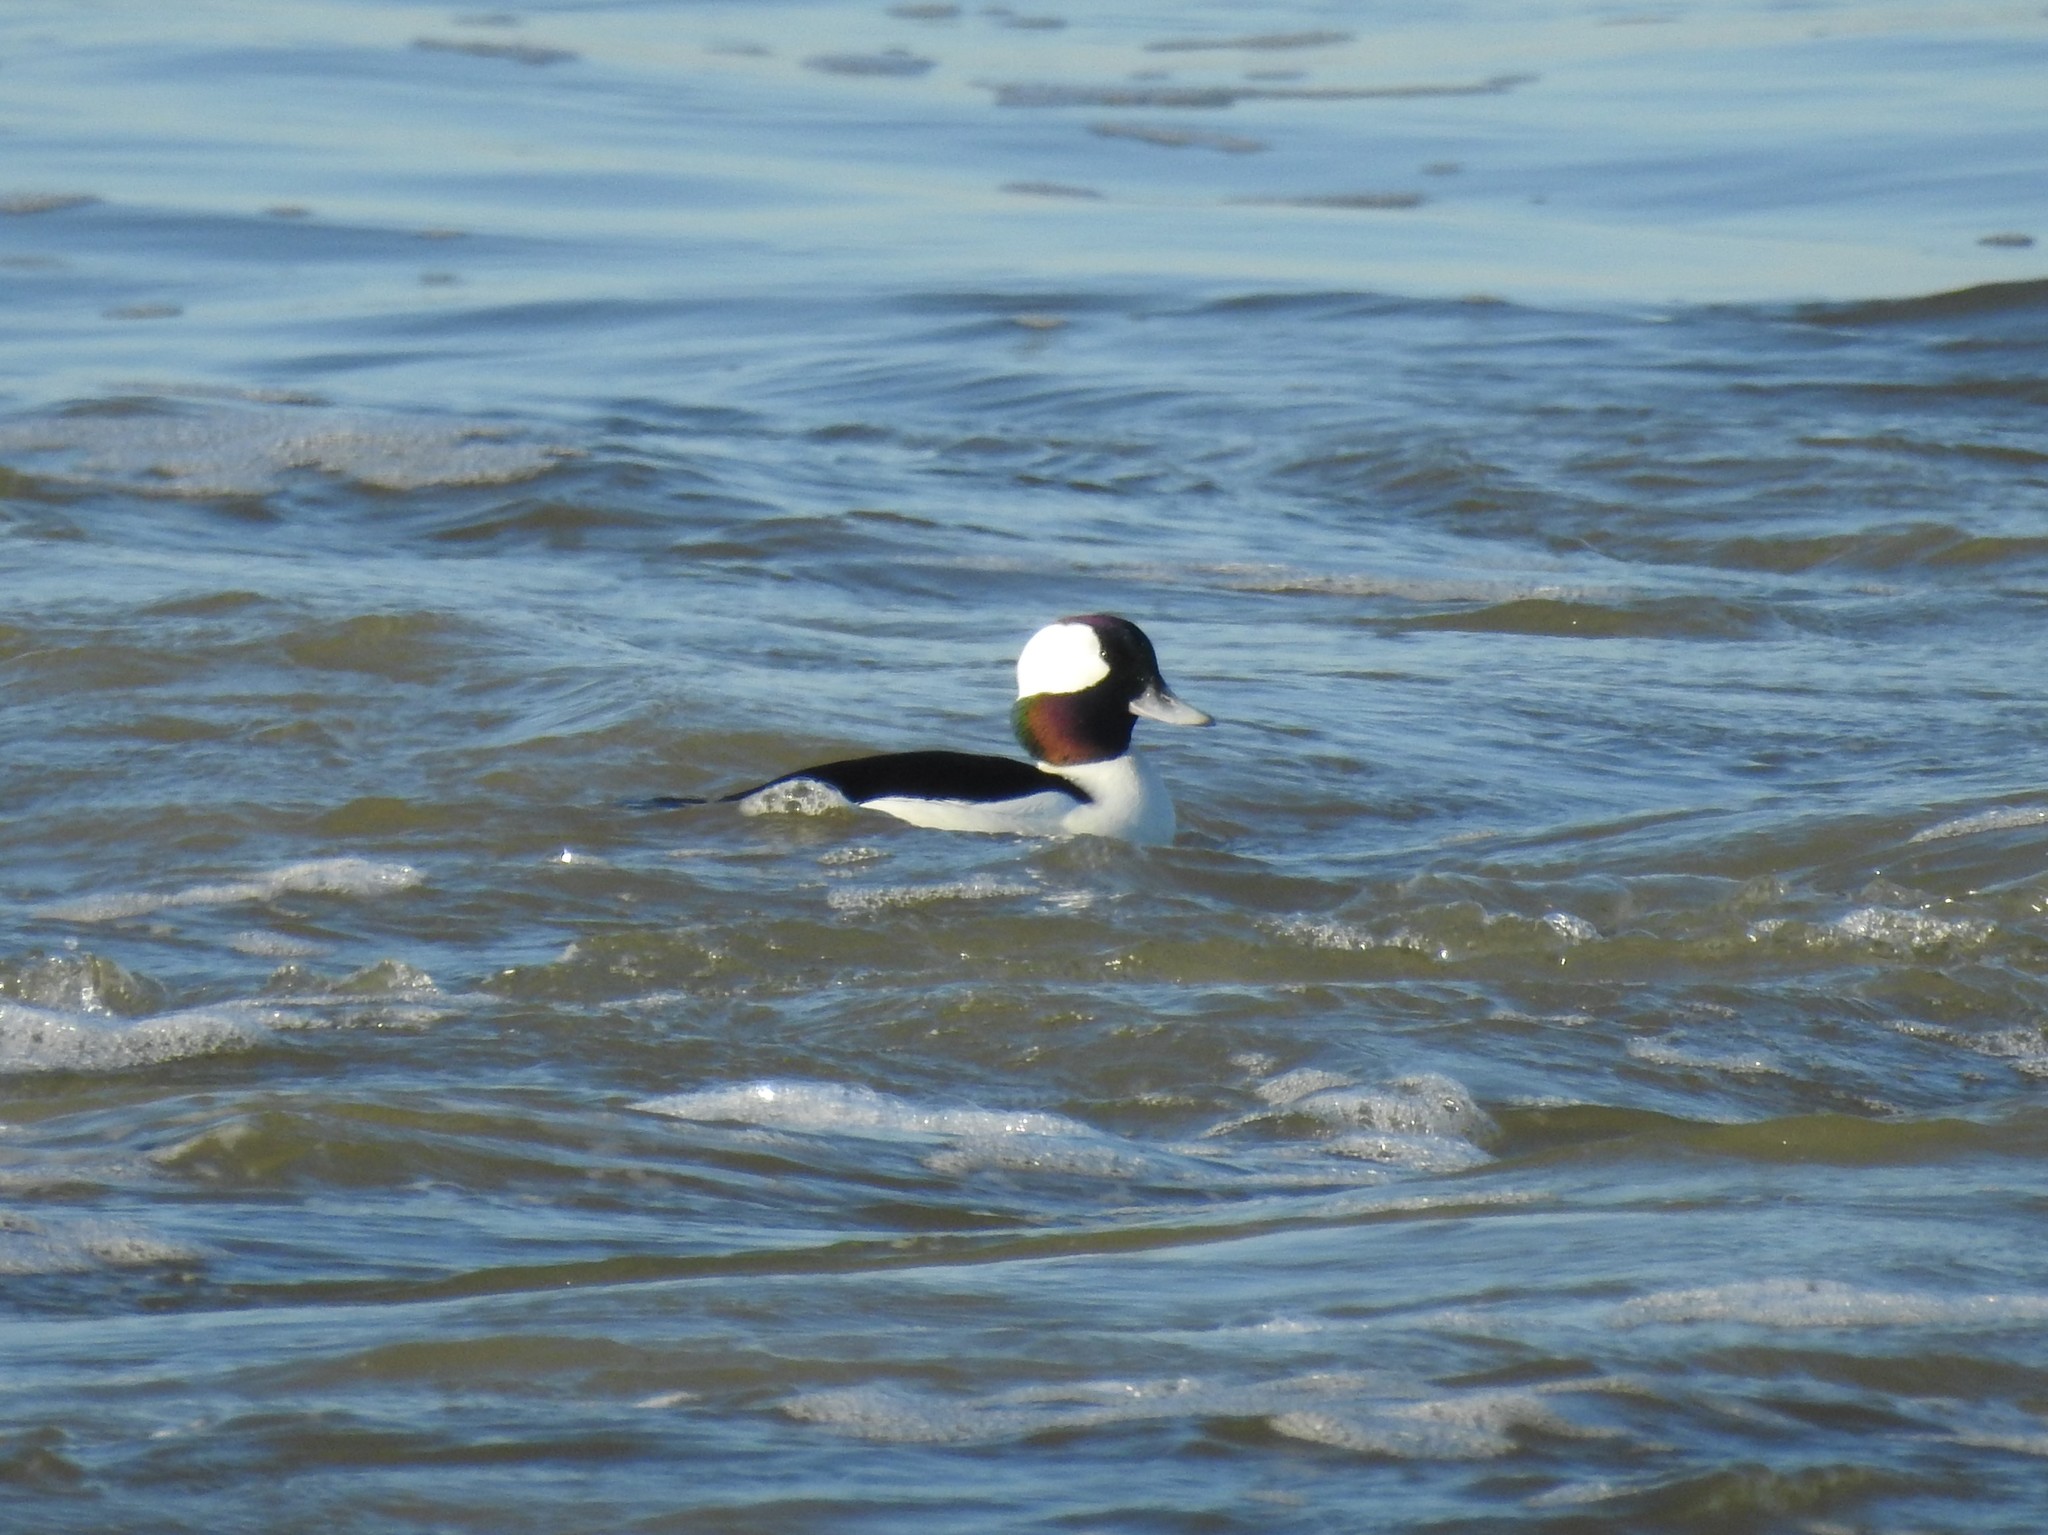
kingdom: Animalia
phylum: Chordata
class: Aves
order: Anseriformes
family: Anatidae
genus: Bucephala
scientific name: Bucephala albeola
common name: Bufflehead
